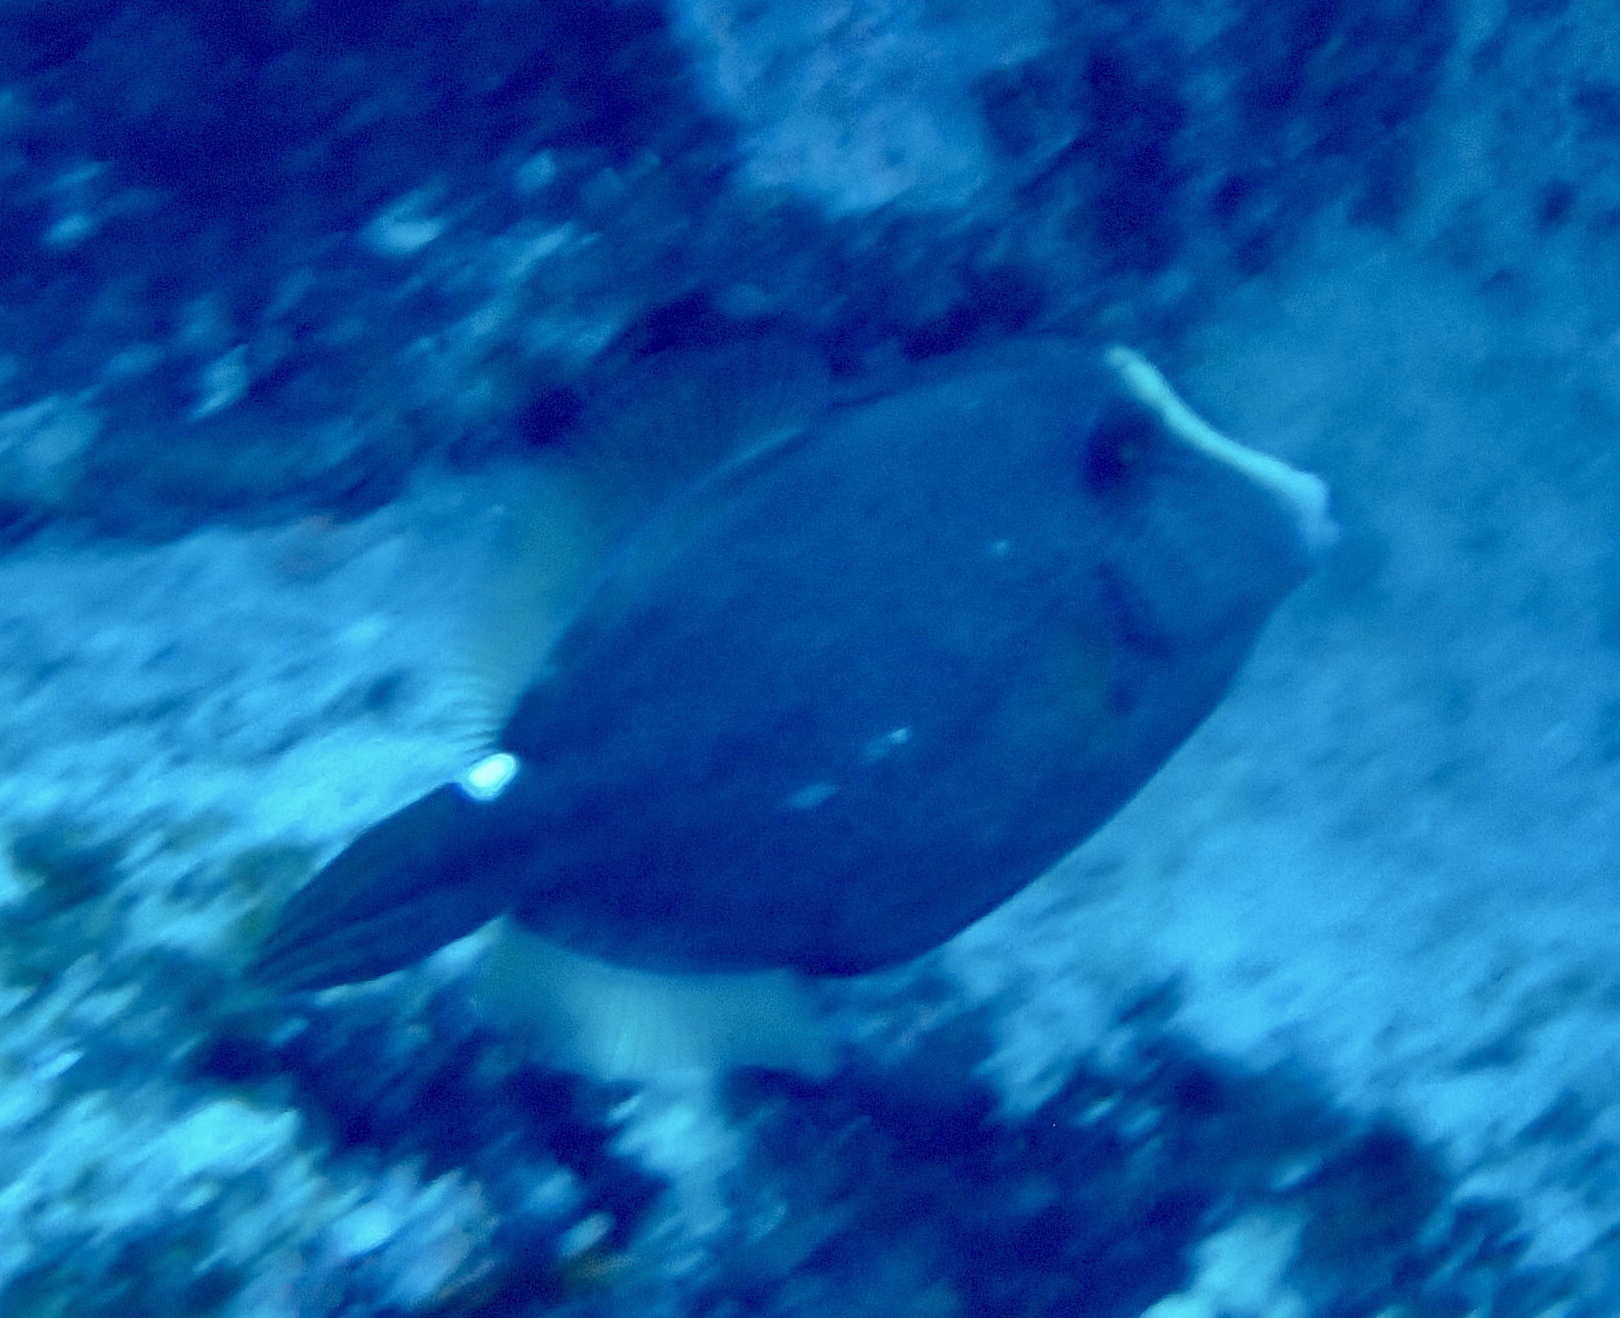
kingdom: Animalia
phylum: Chordata
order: Tetraodontiformes
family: Monacanthidae
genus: Cantherhines
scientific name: Cantherhines pardalis
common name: Honeycomb filefish
